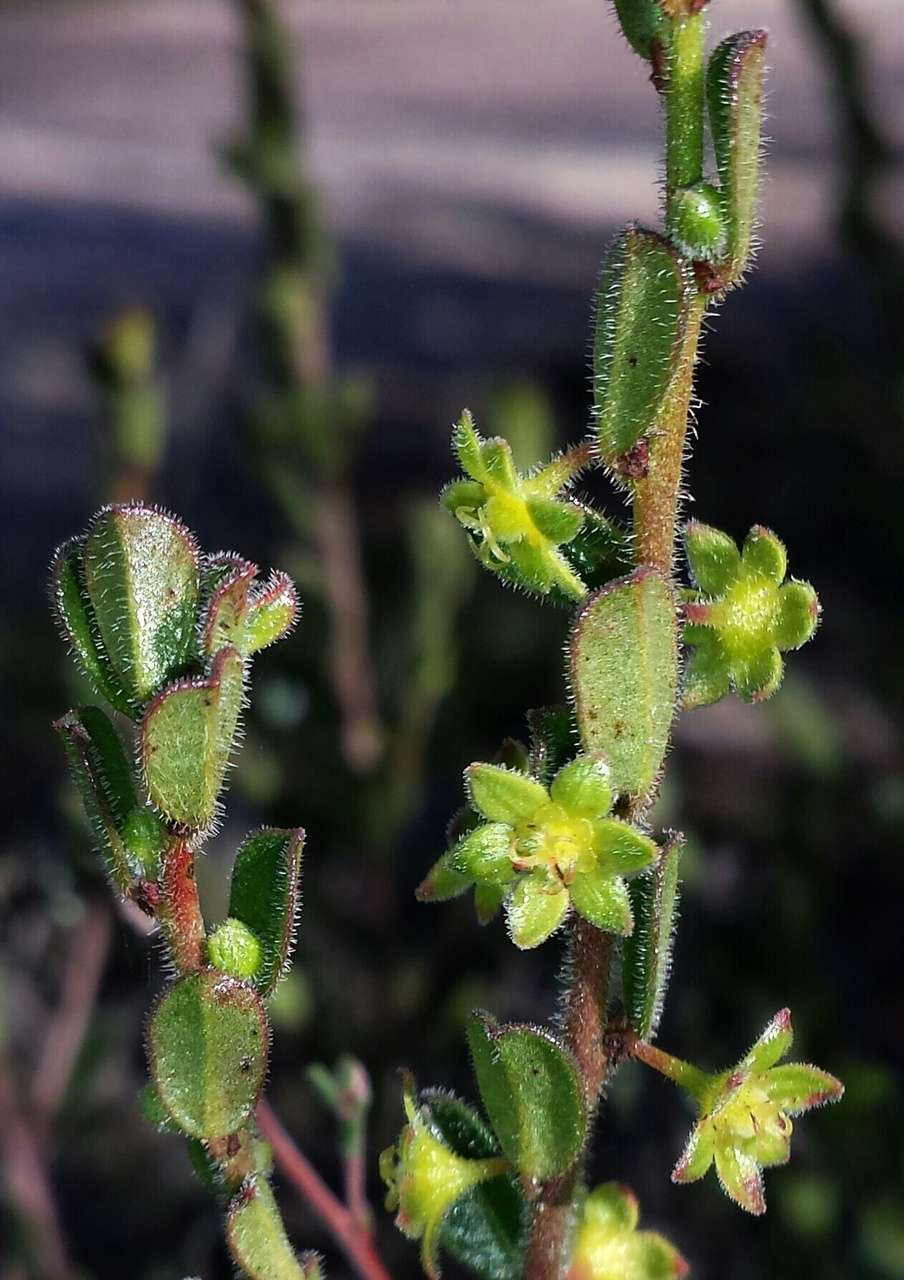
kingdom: Plantae
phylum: Tracheophyta
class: Magnoliopsida
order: Malpighiales
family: Phyllanthaceae
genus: Phyllanthus
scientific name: Phyllanthus hirtellus
